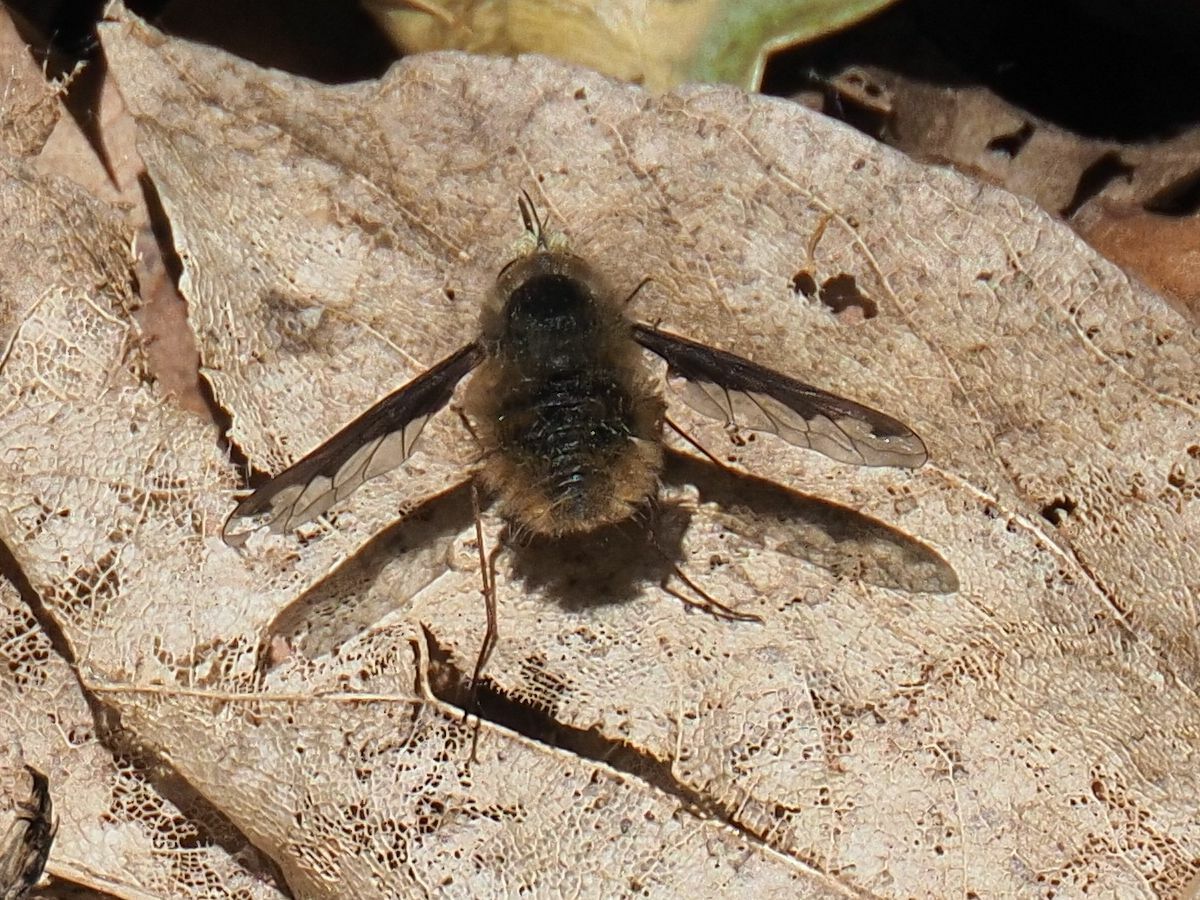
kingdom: Animalia
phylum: Arthropoda
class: Insecta
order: Diptera
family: Bombyliidae
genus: Bombylius
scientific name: Bombylius major
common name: Bee fly
